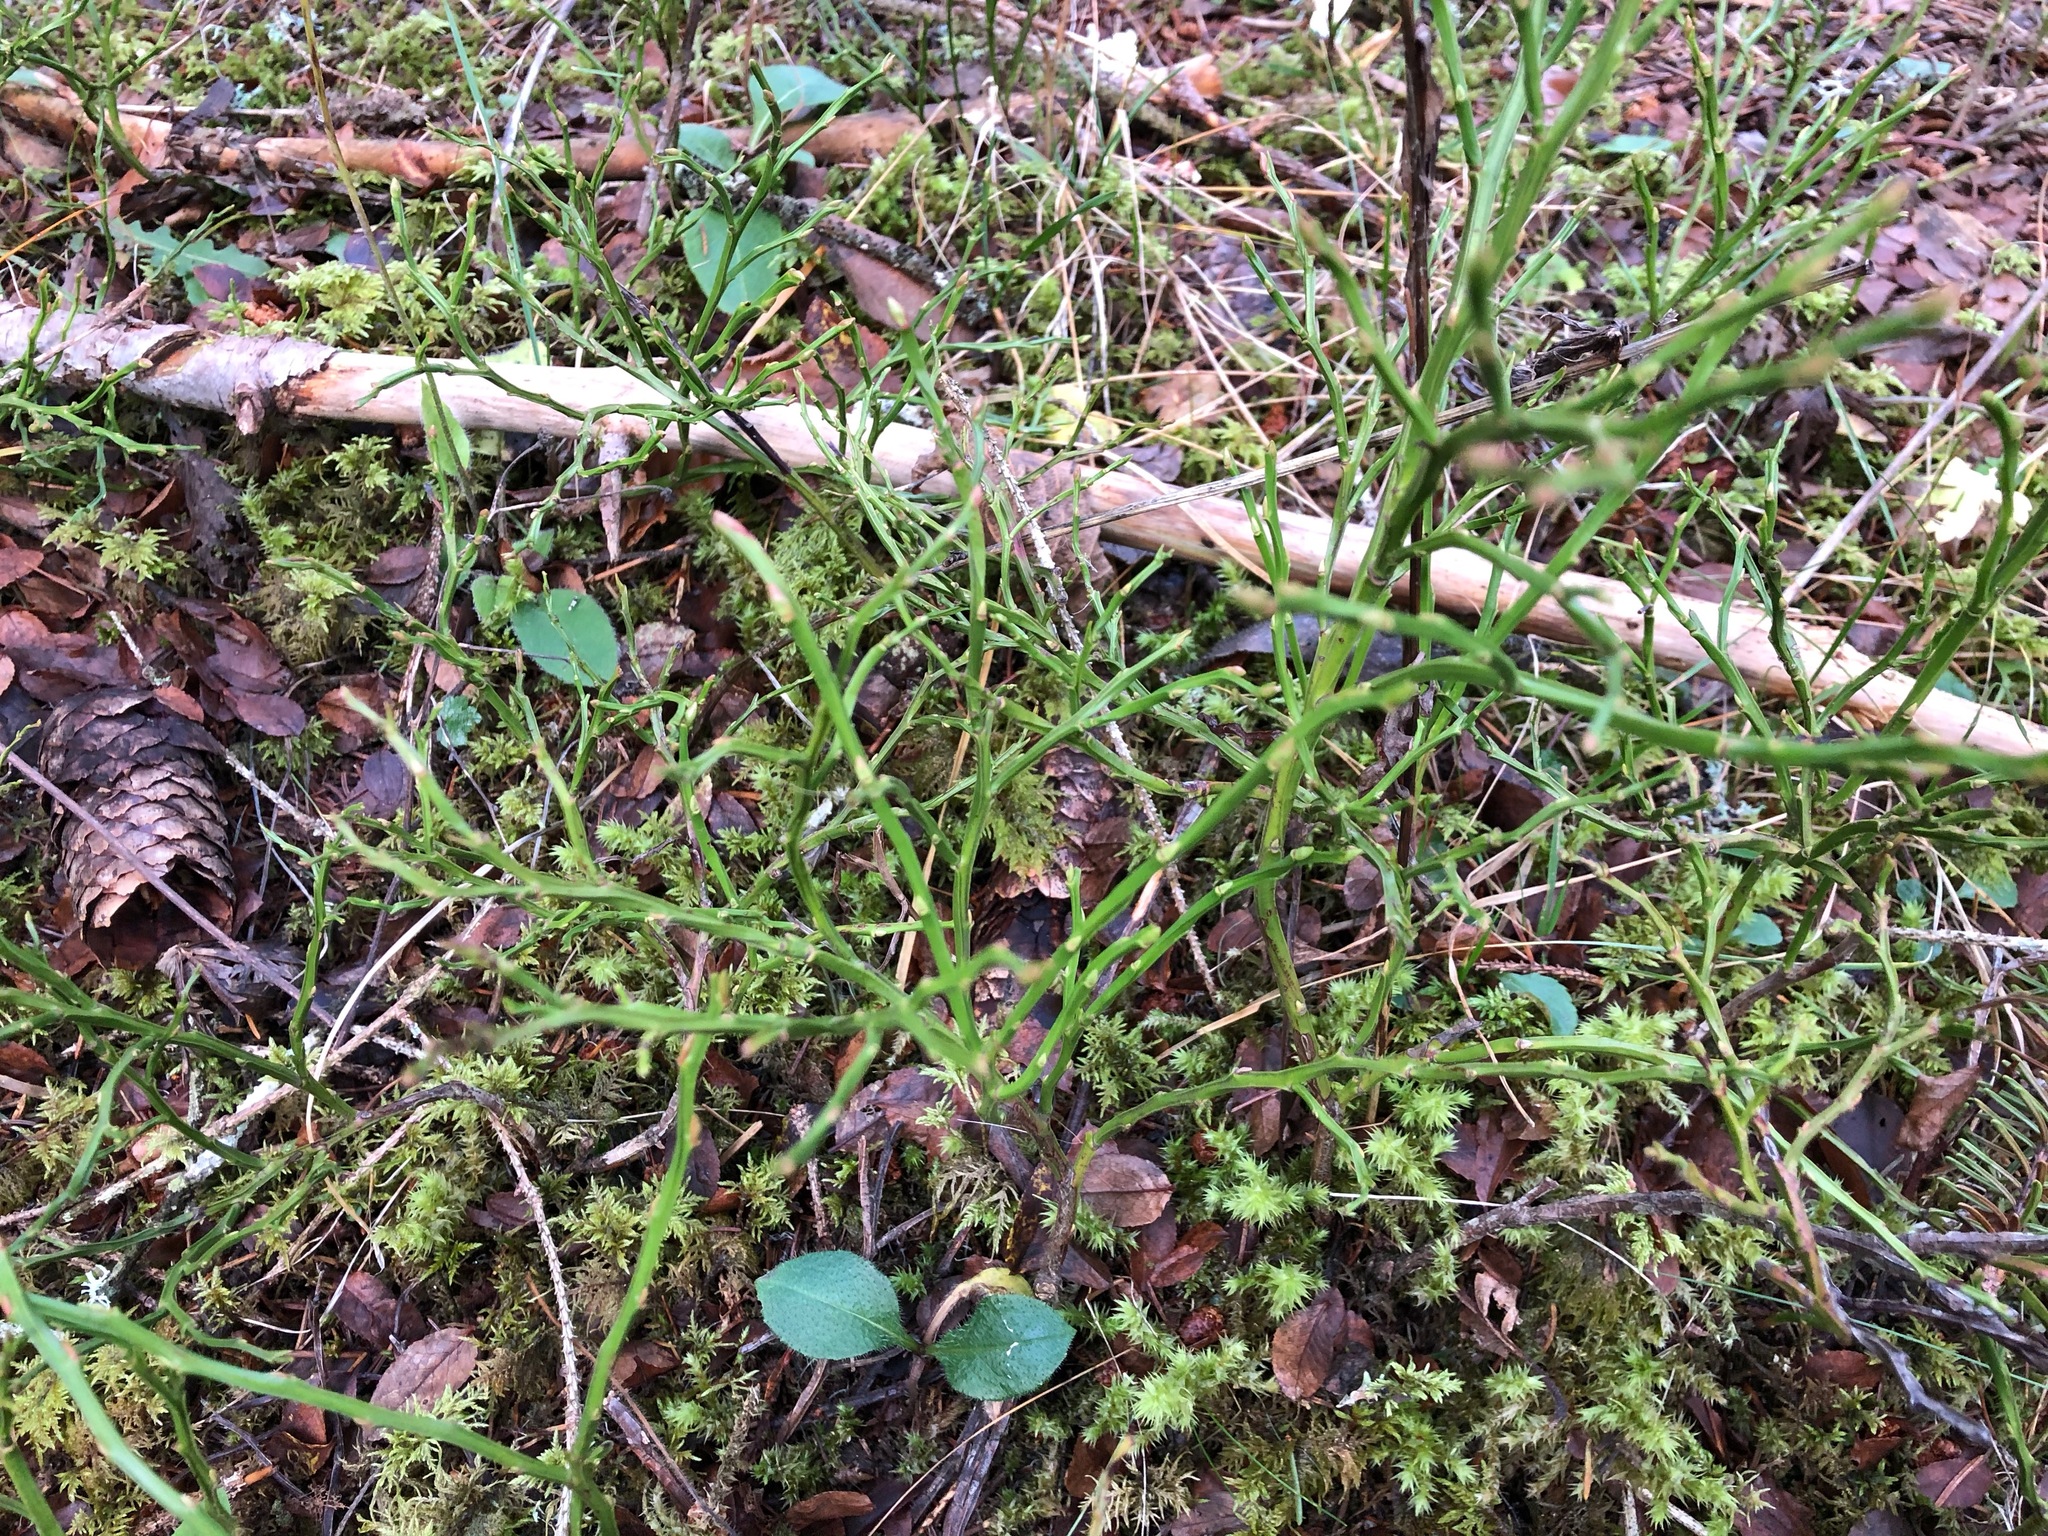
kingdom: Plantae
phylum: Tracheophyta
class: Magnoliopsida
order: Ericales
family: Ericaceae
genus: Vaccinium
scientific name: Vaccinium myrtillus
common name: Bilberry
